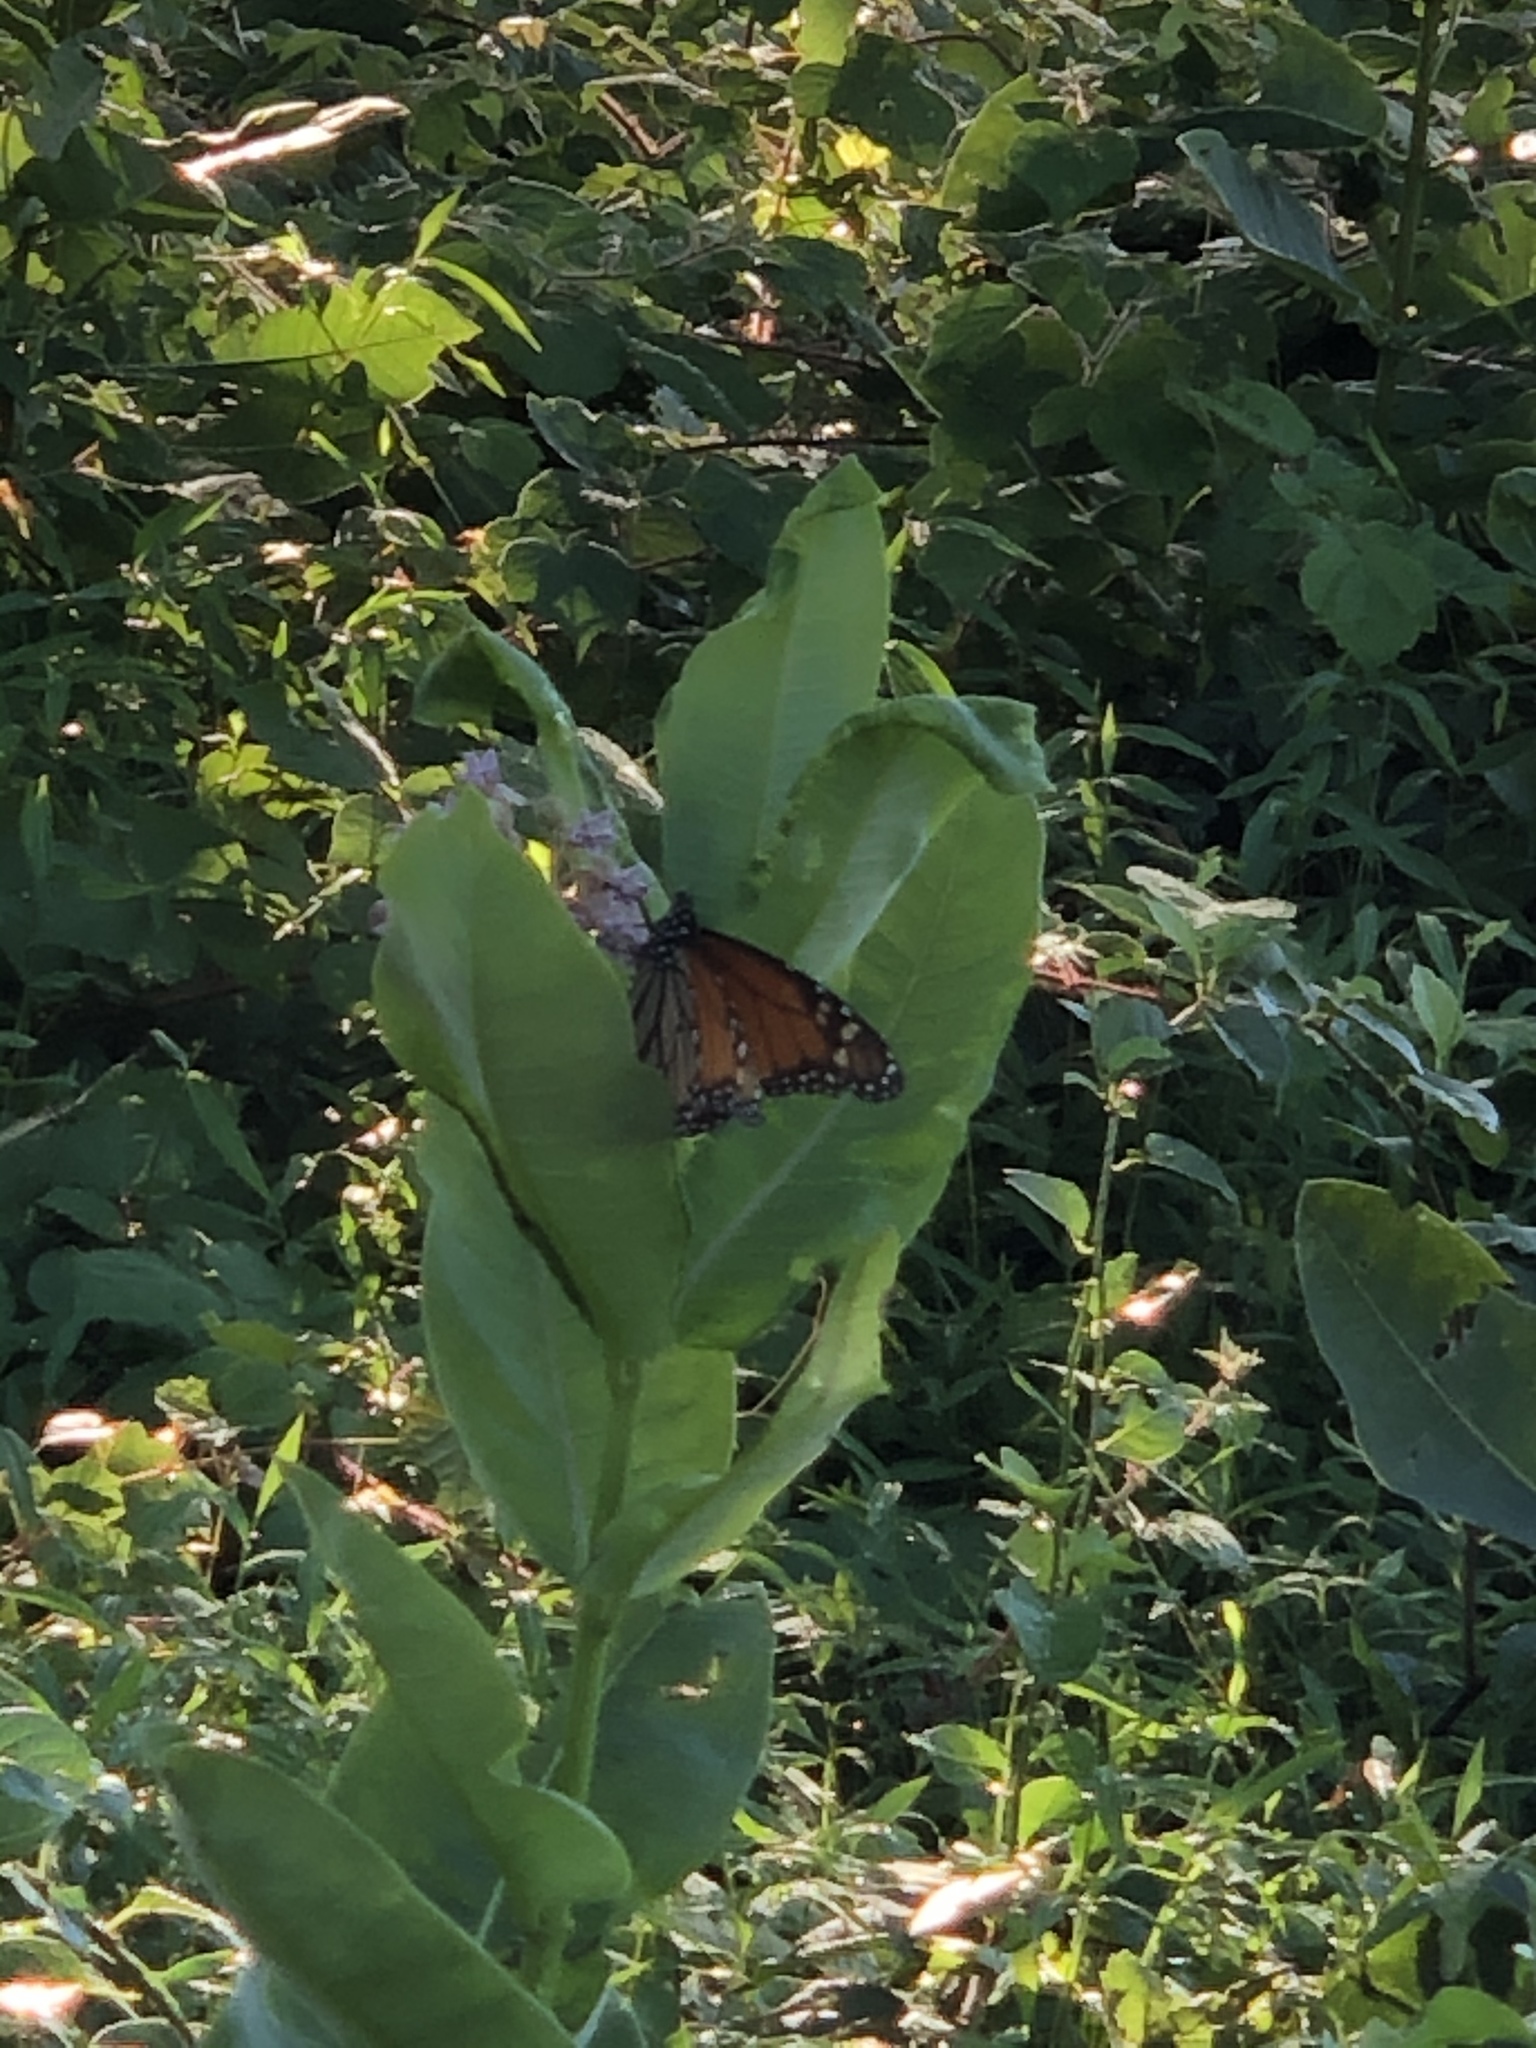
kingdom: Animalia
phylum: Arthropoda
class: Insecta
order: Lepidoptera
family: Nymphalidae
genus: Danaus
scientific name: Danaus plexippus
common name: Monarch
